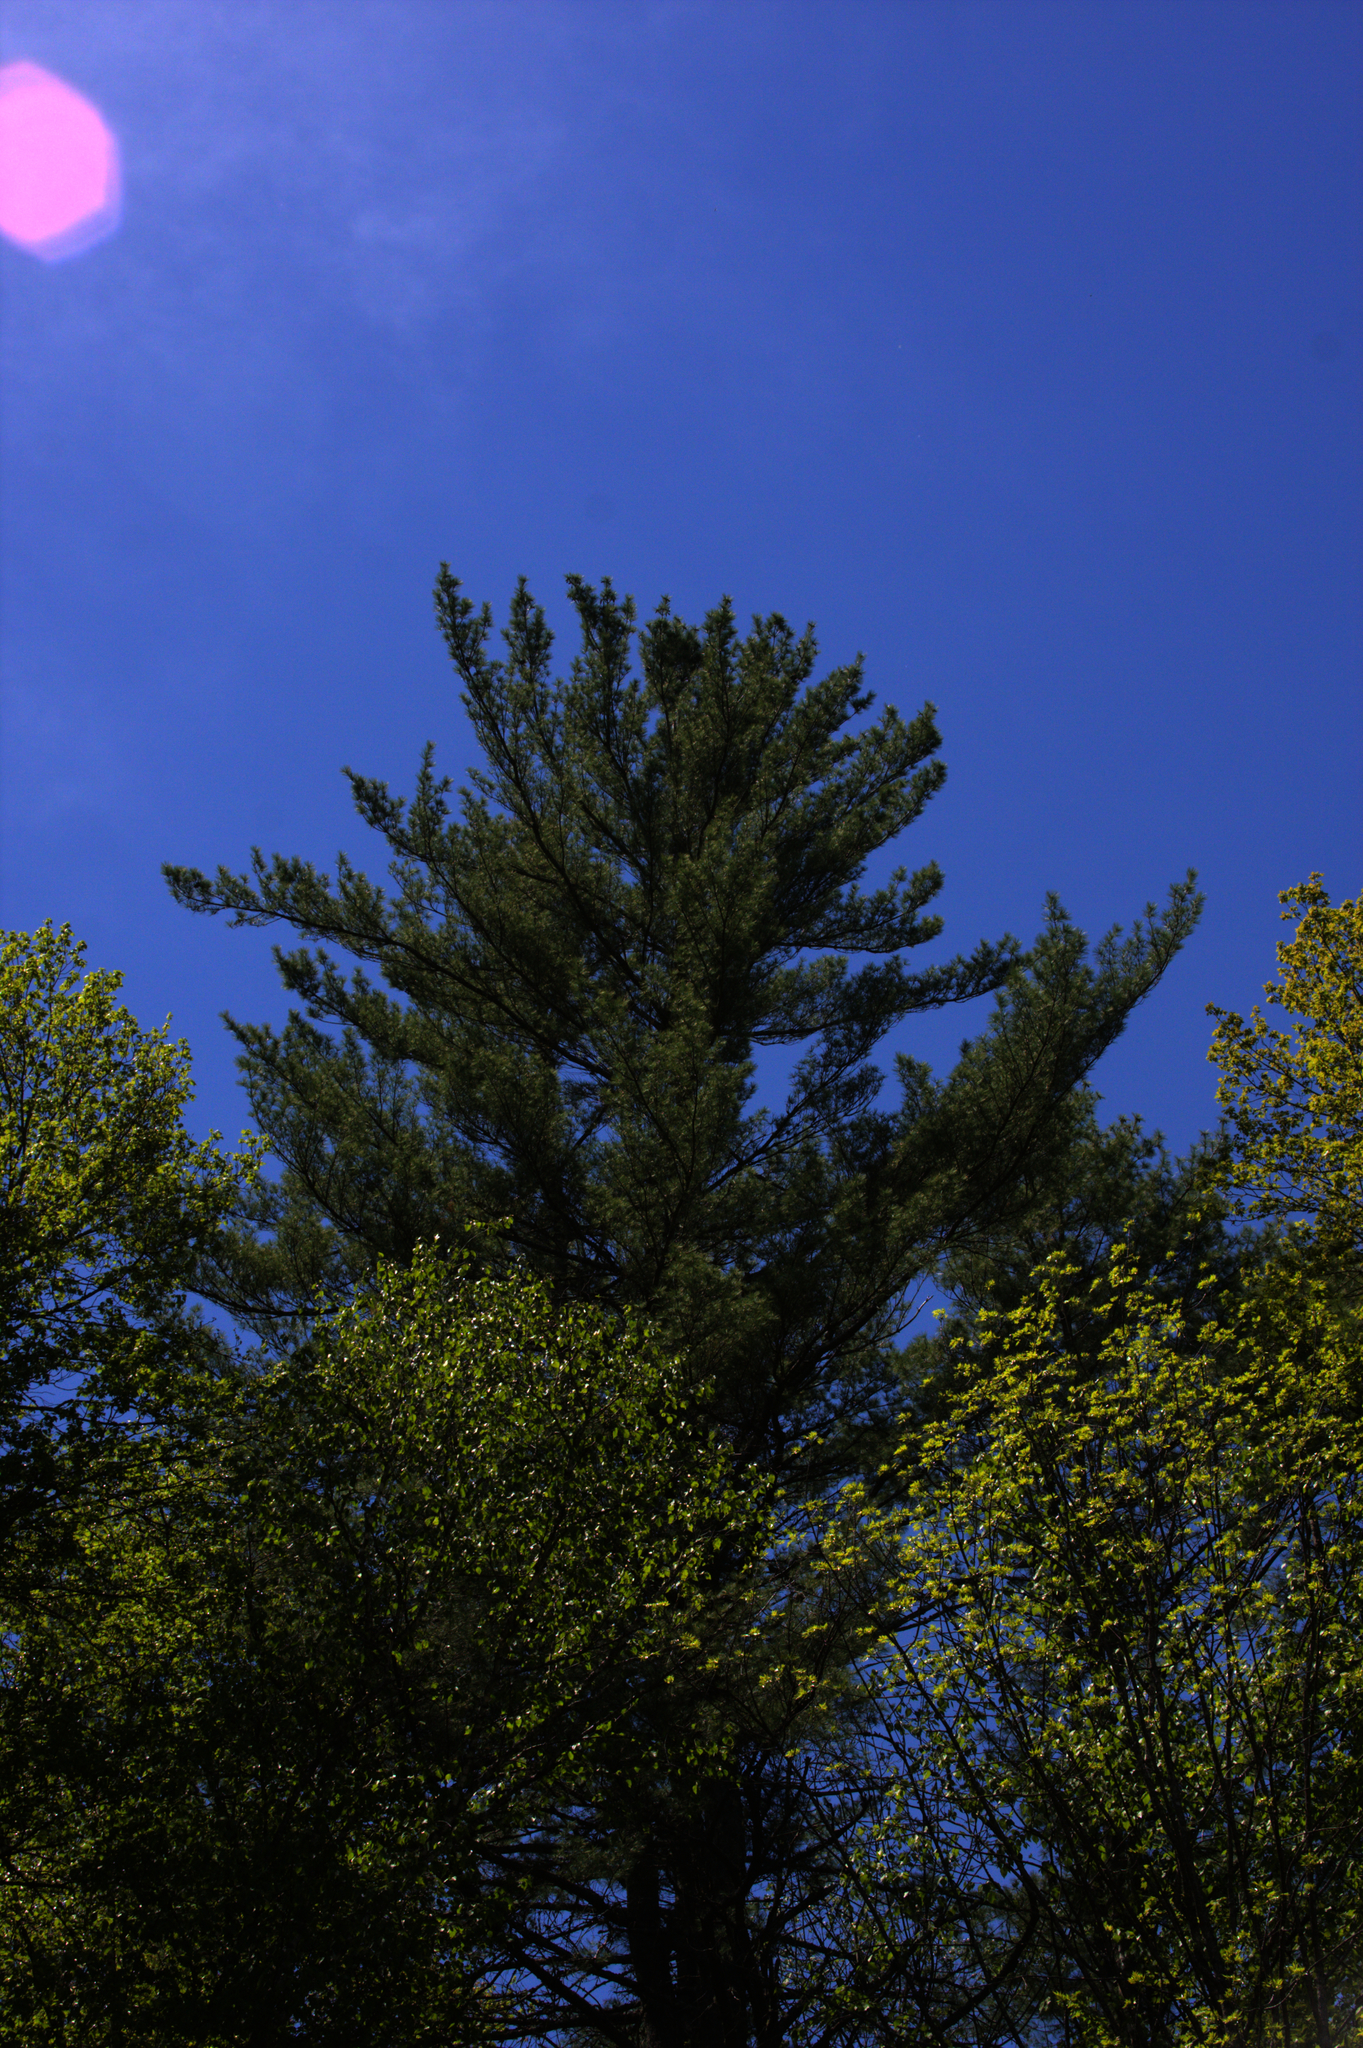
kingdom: Plantae
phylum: Tracheophyta
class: Pinopsida
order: Pinales
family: Pinaceae
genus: Pinus
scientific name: Pinus strobus
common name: Weymouth pine
